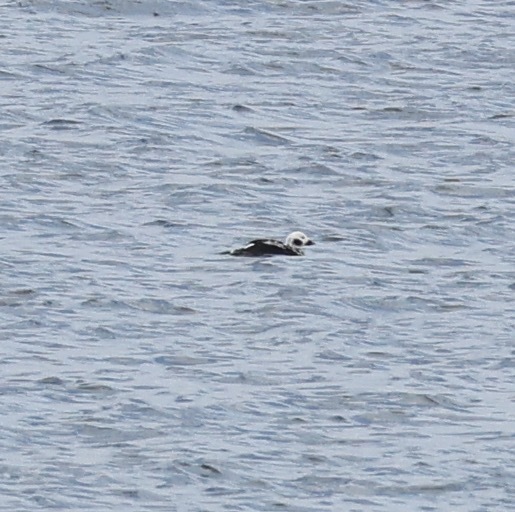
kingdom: Animalia
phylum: Chordata
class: Aves
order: Anseriformes
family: Anatidae
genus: Clangula
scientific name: Clangula hyemalis
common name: Long-tailed duck
